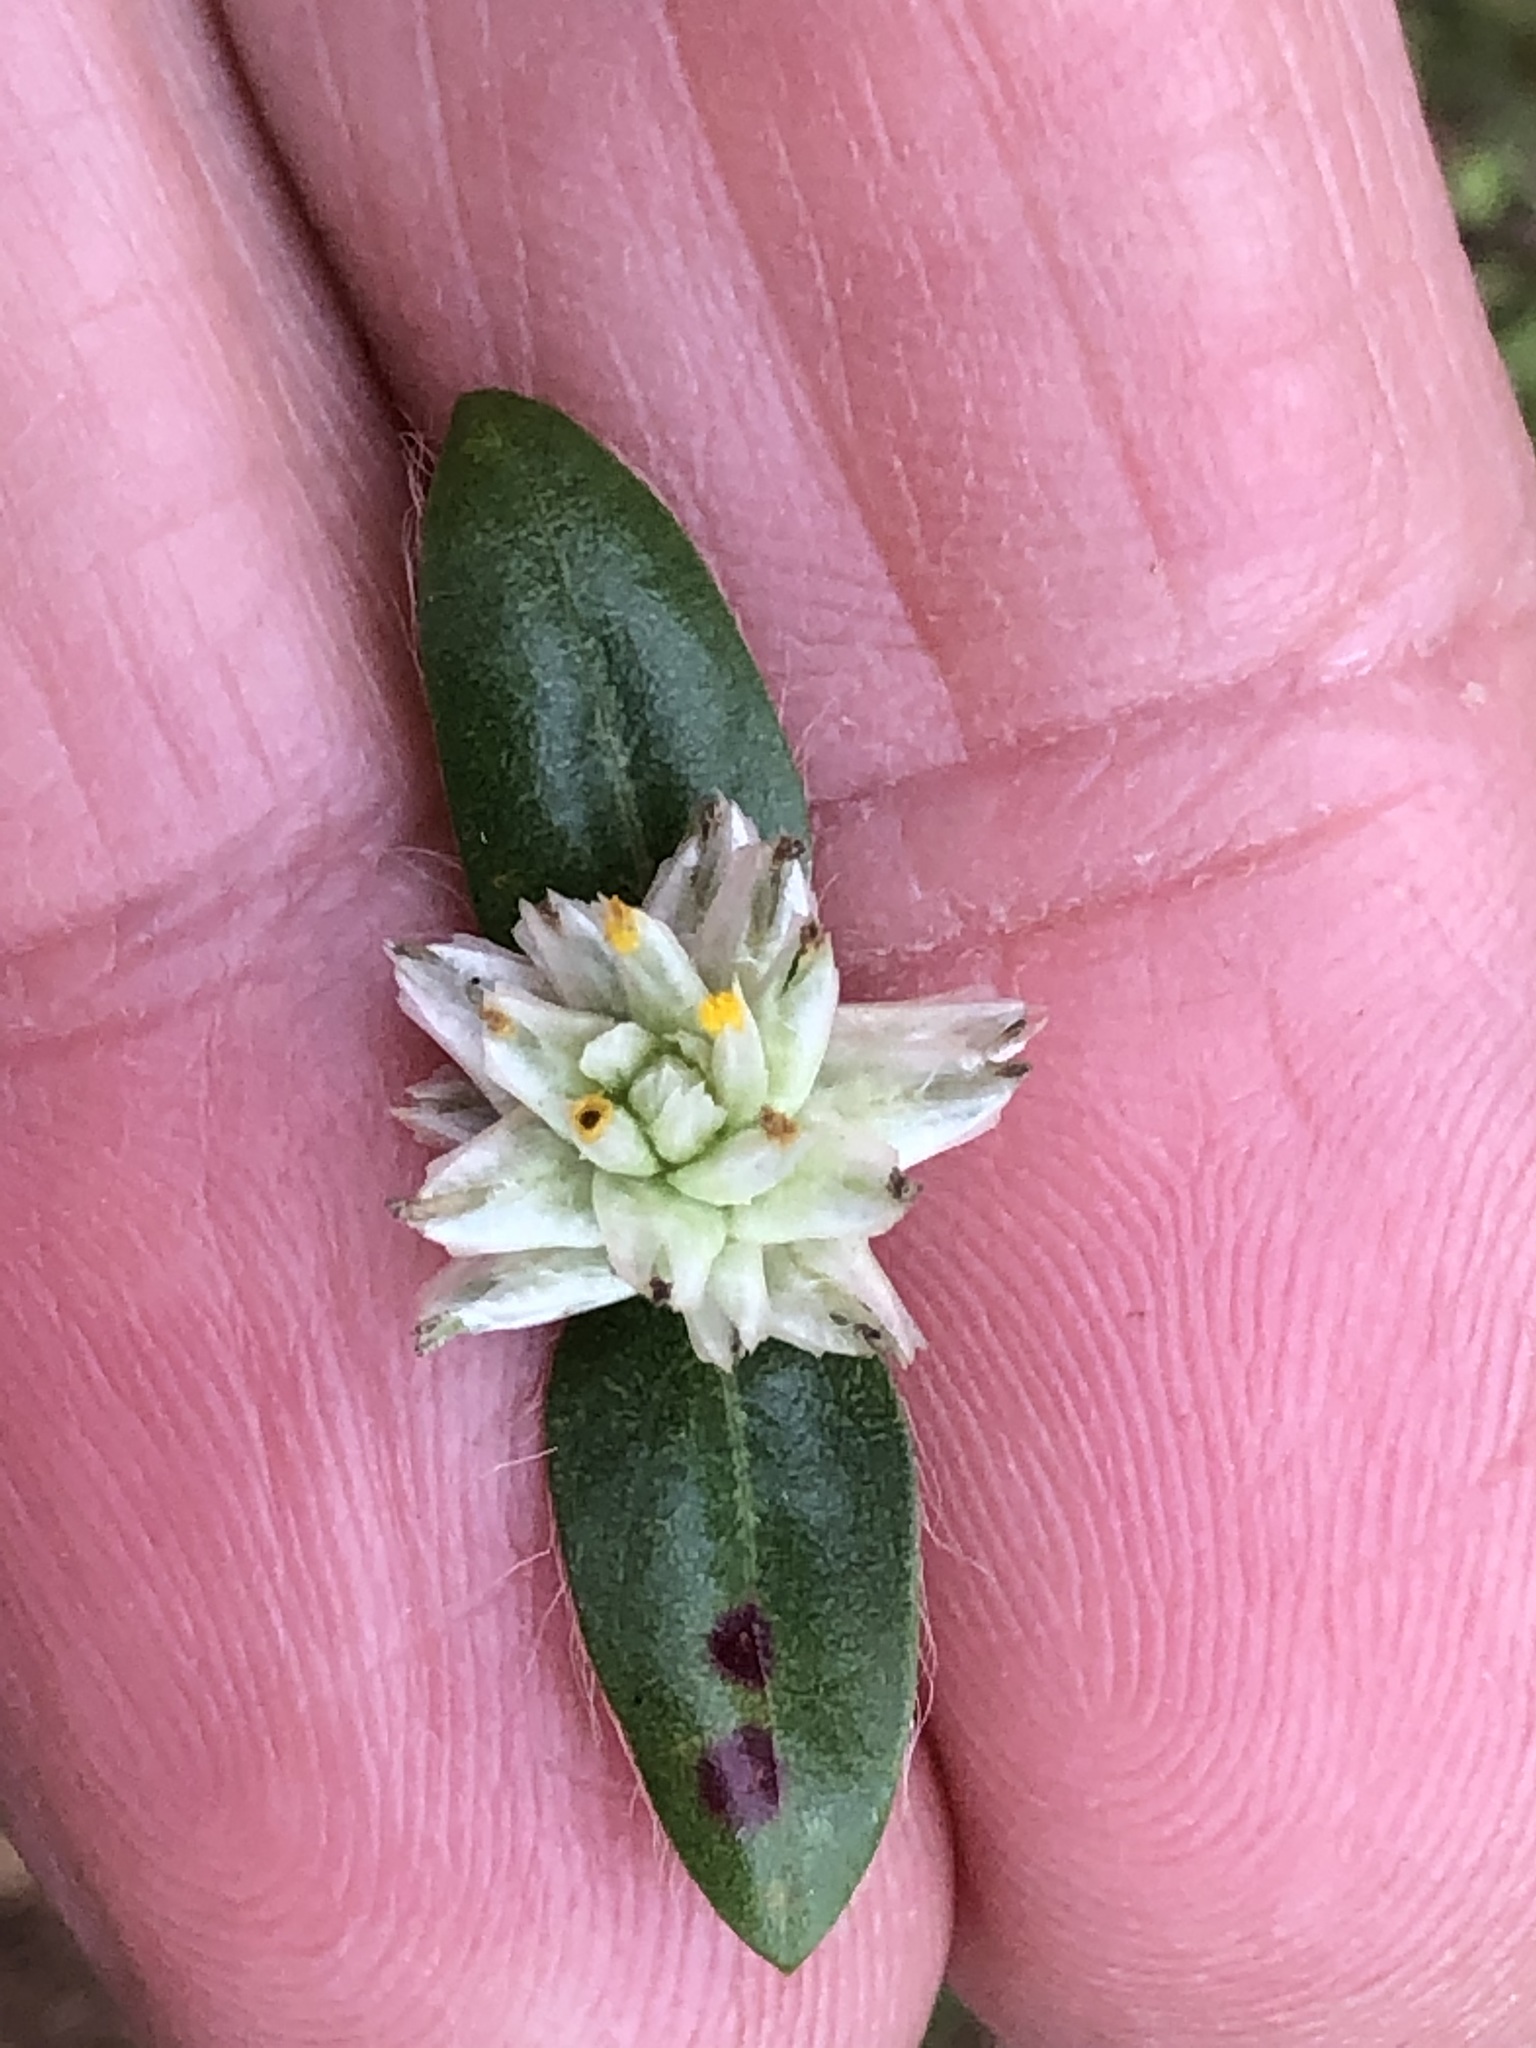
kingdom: Plantae
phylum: Tracheophyta
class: Magnoliopsida
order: Caryophyllales
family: Amaranthaceae
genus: Gomphrena
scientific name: Gomphrena celosioides
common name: Gomphrena-weed
